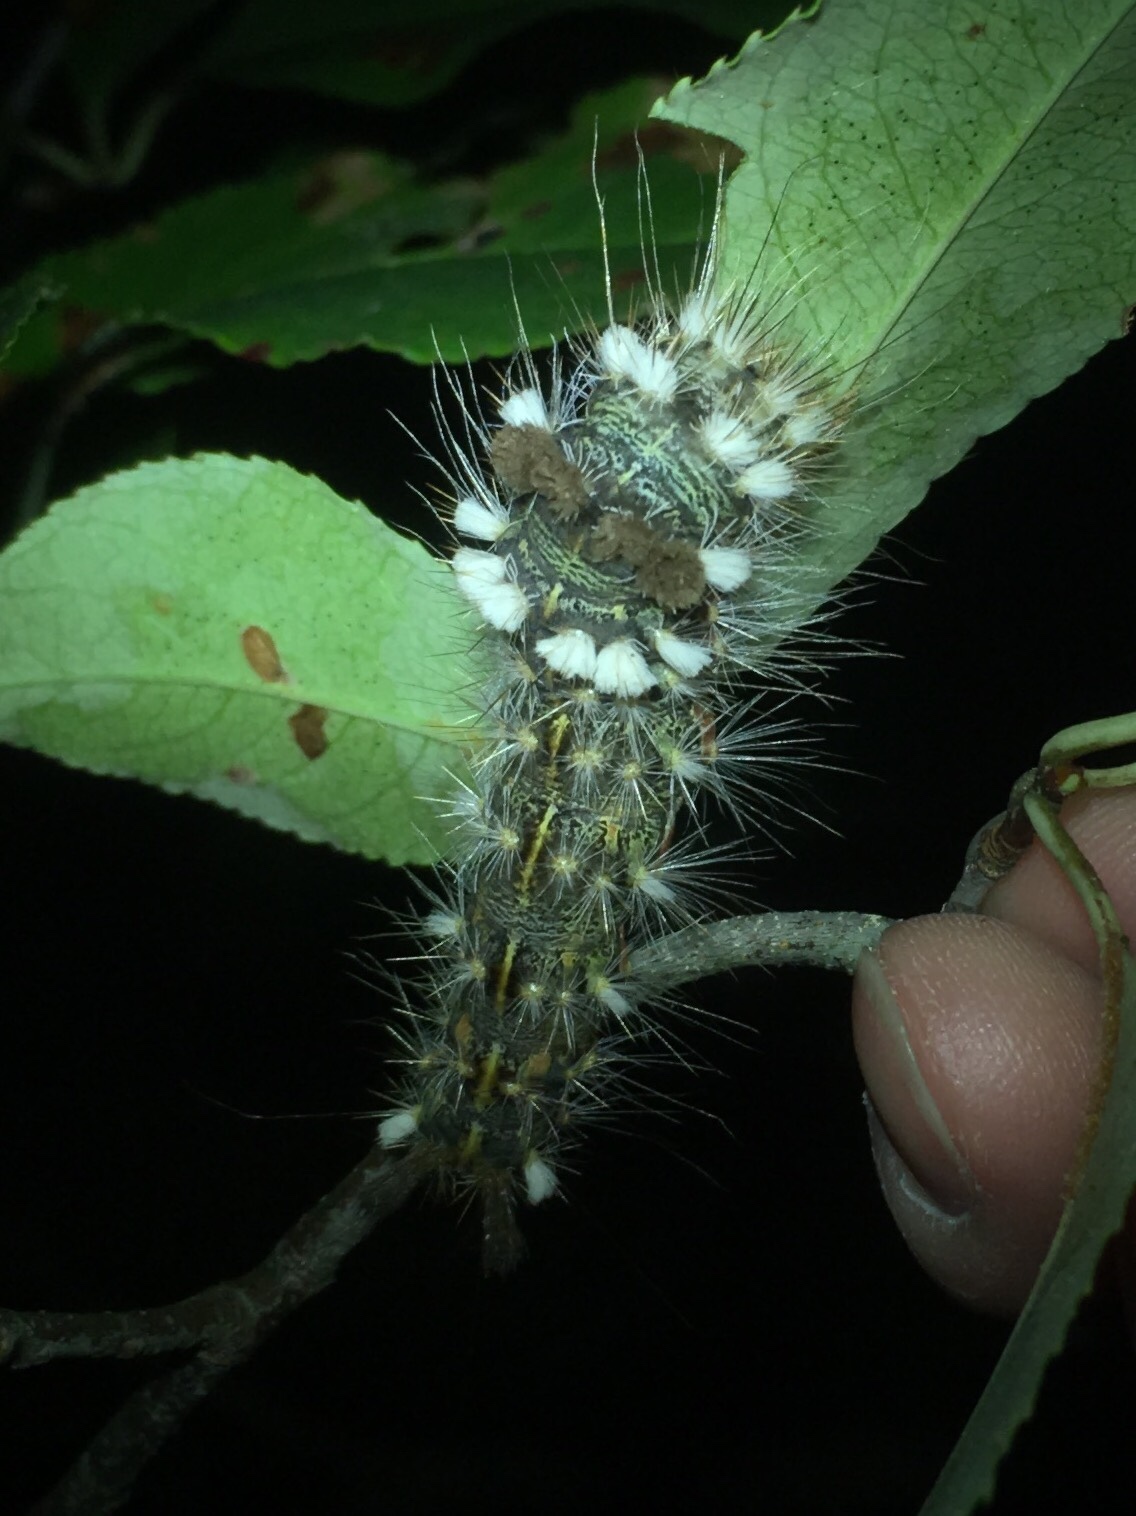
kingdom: Animalia
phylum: Arthropoda
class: Insecta
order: Lepidoptera
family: Noctuidae
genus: Acronicta
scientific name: Acronicta impleta
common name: Powdered dagger
